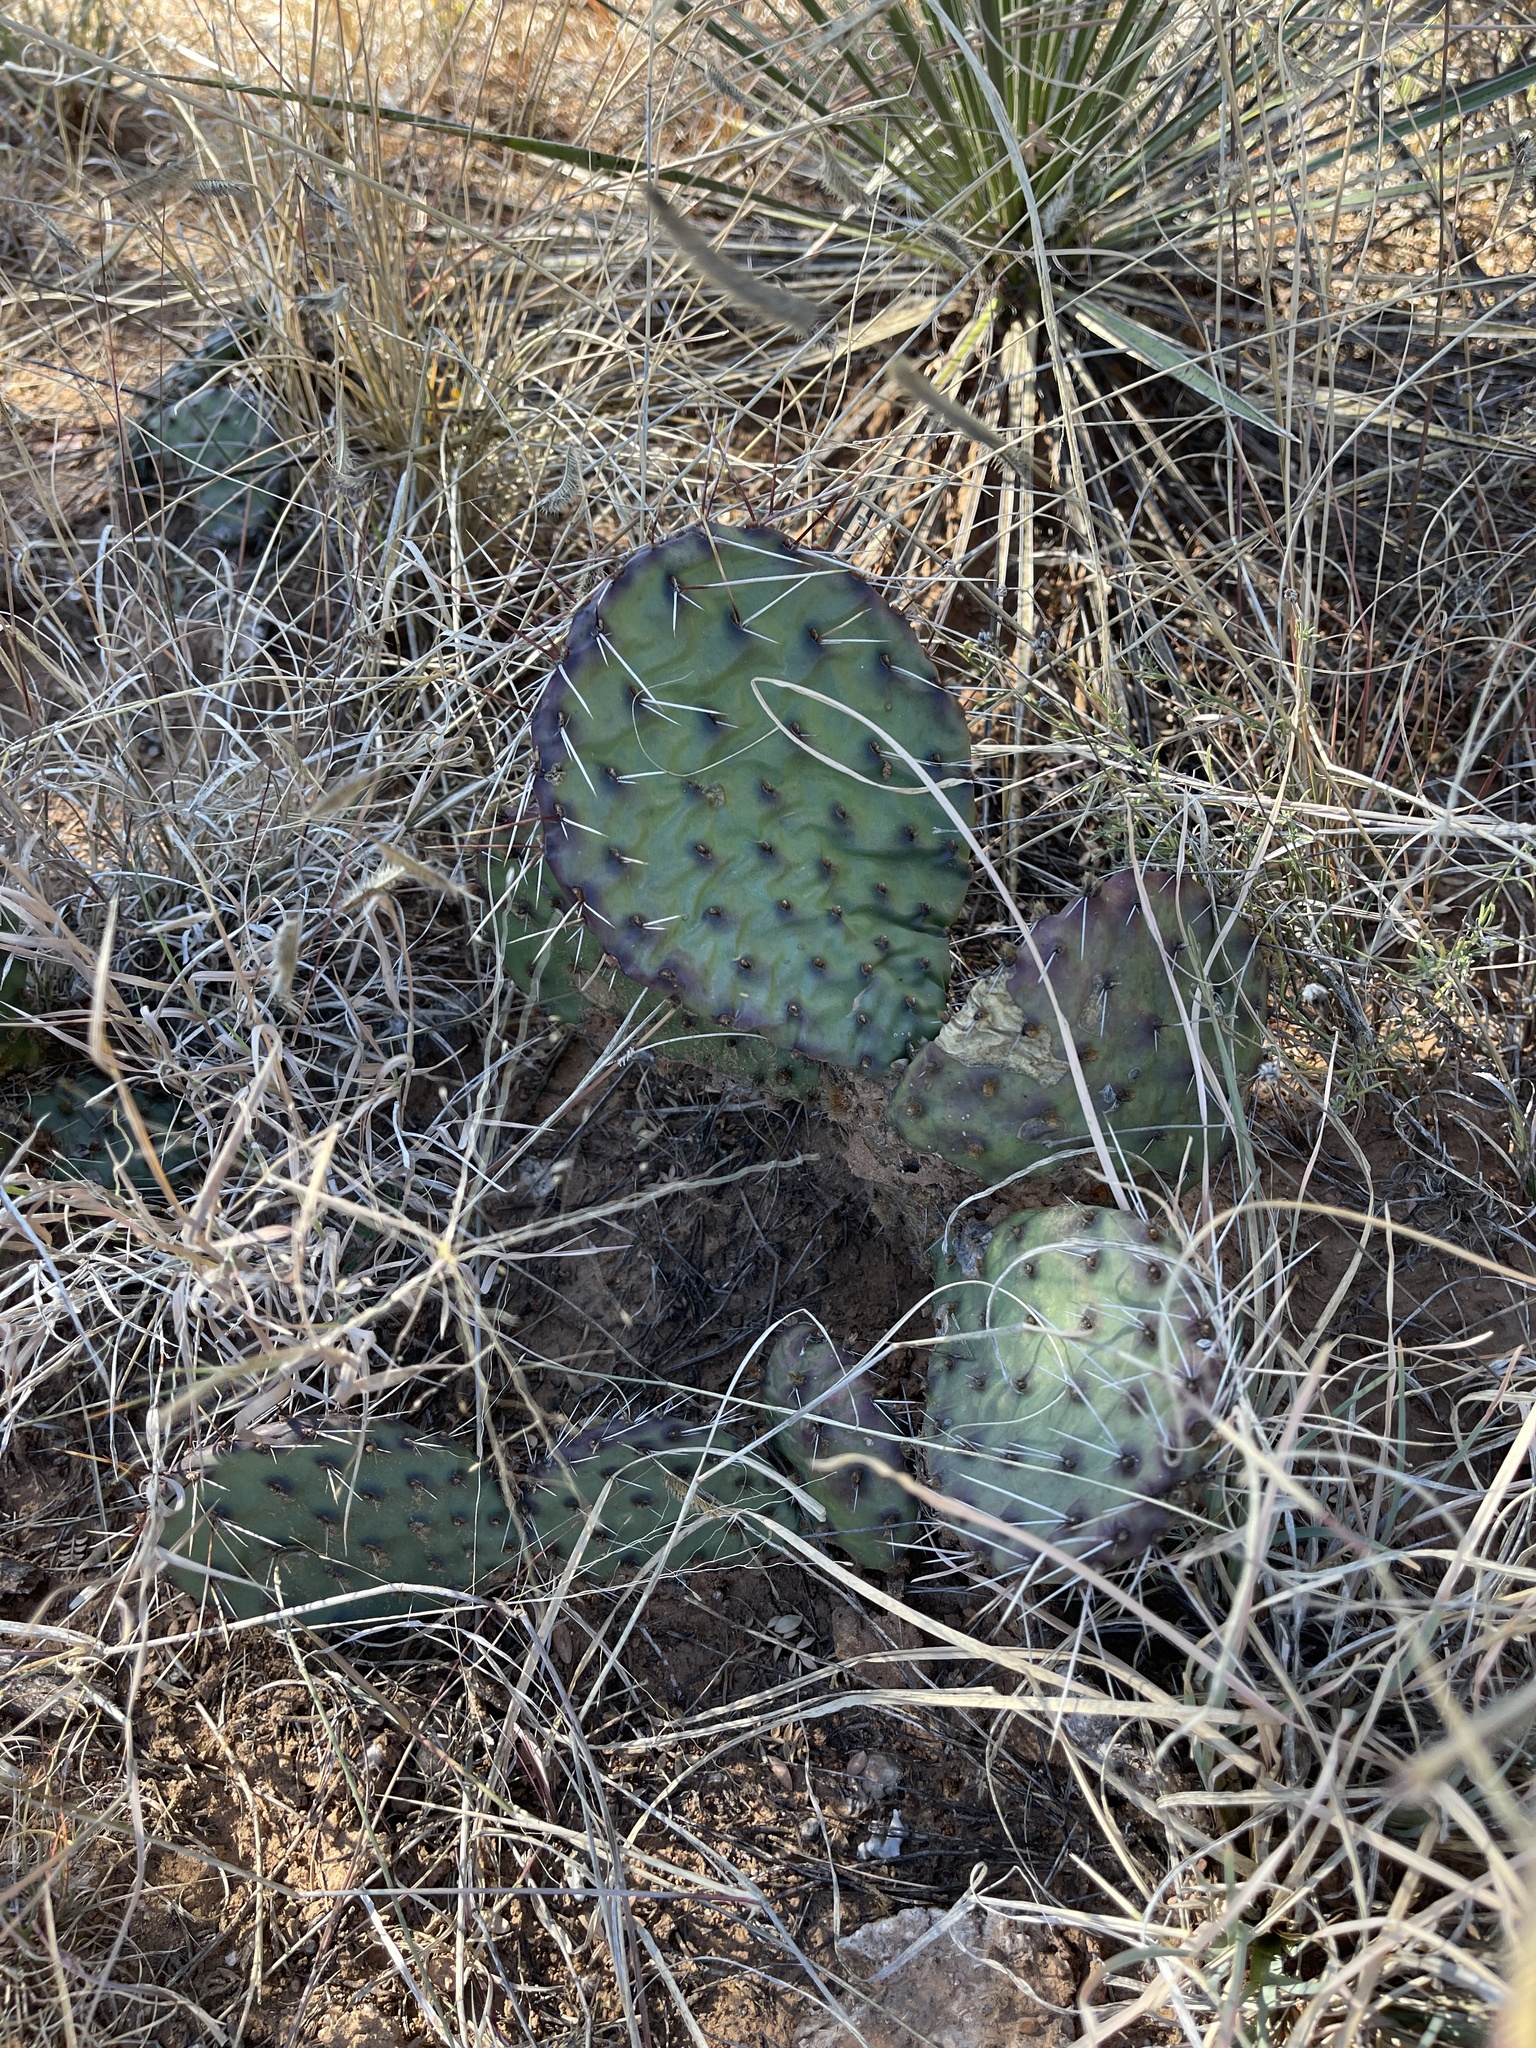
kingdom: Plantae
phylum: Tracheophyta
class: Magnoliopsida
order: Caryophyllales
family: Cactaceae
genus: Opuntia
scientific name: Opuntia cymochila
